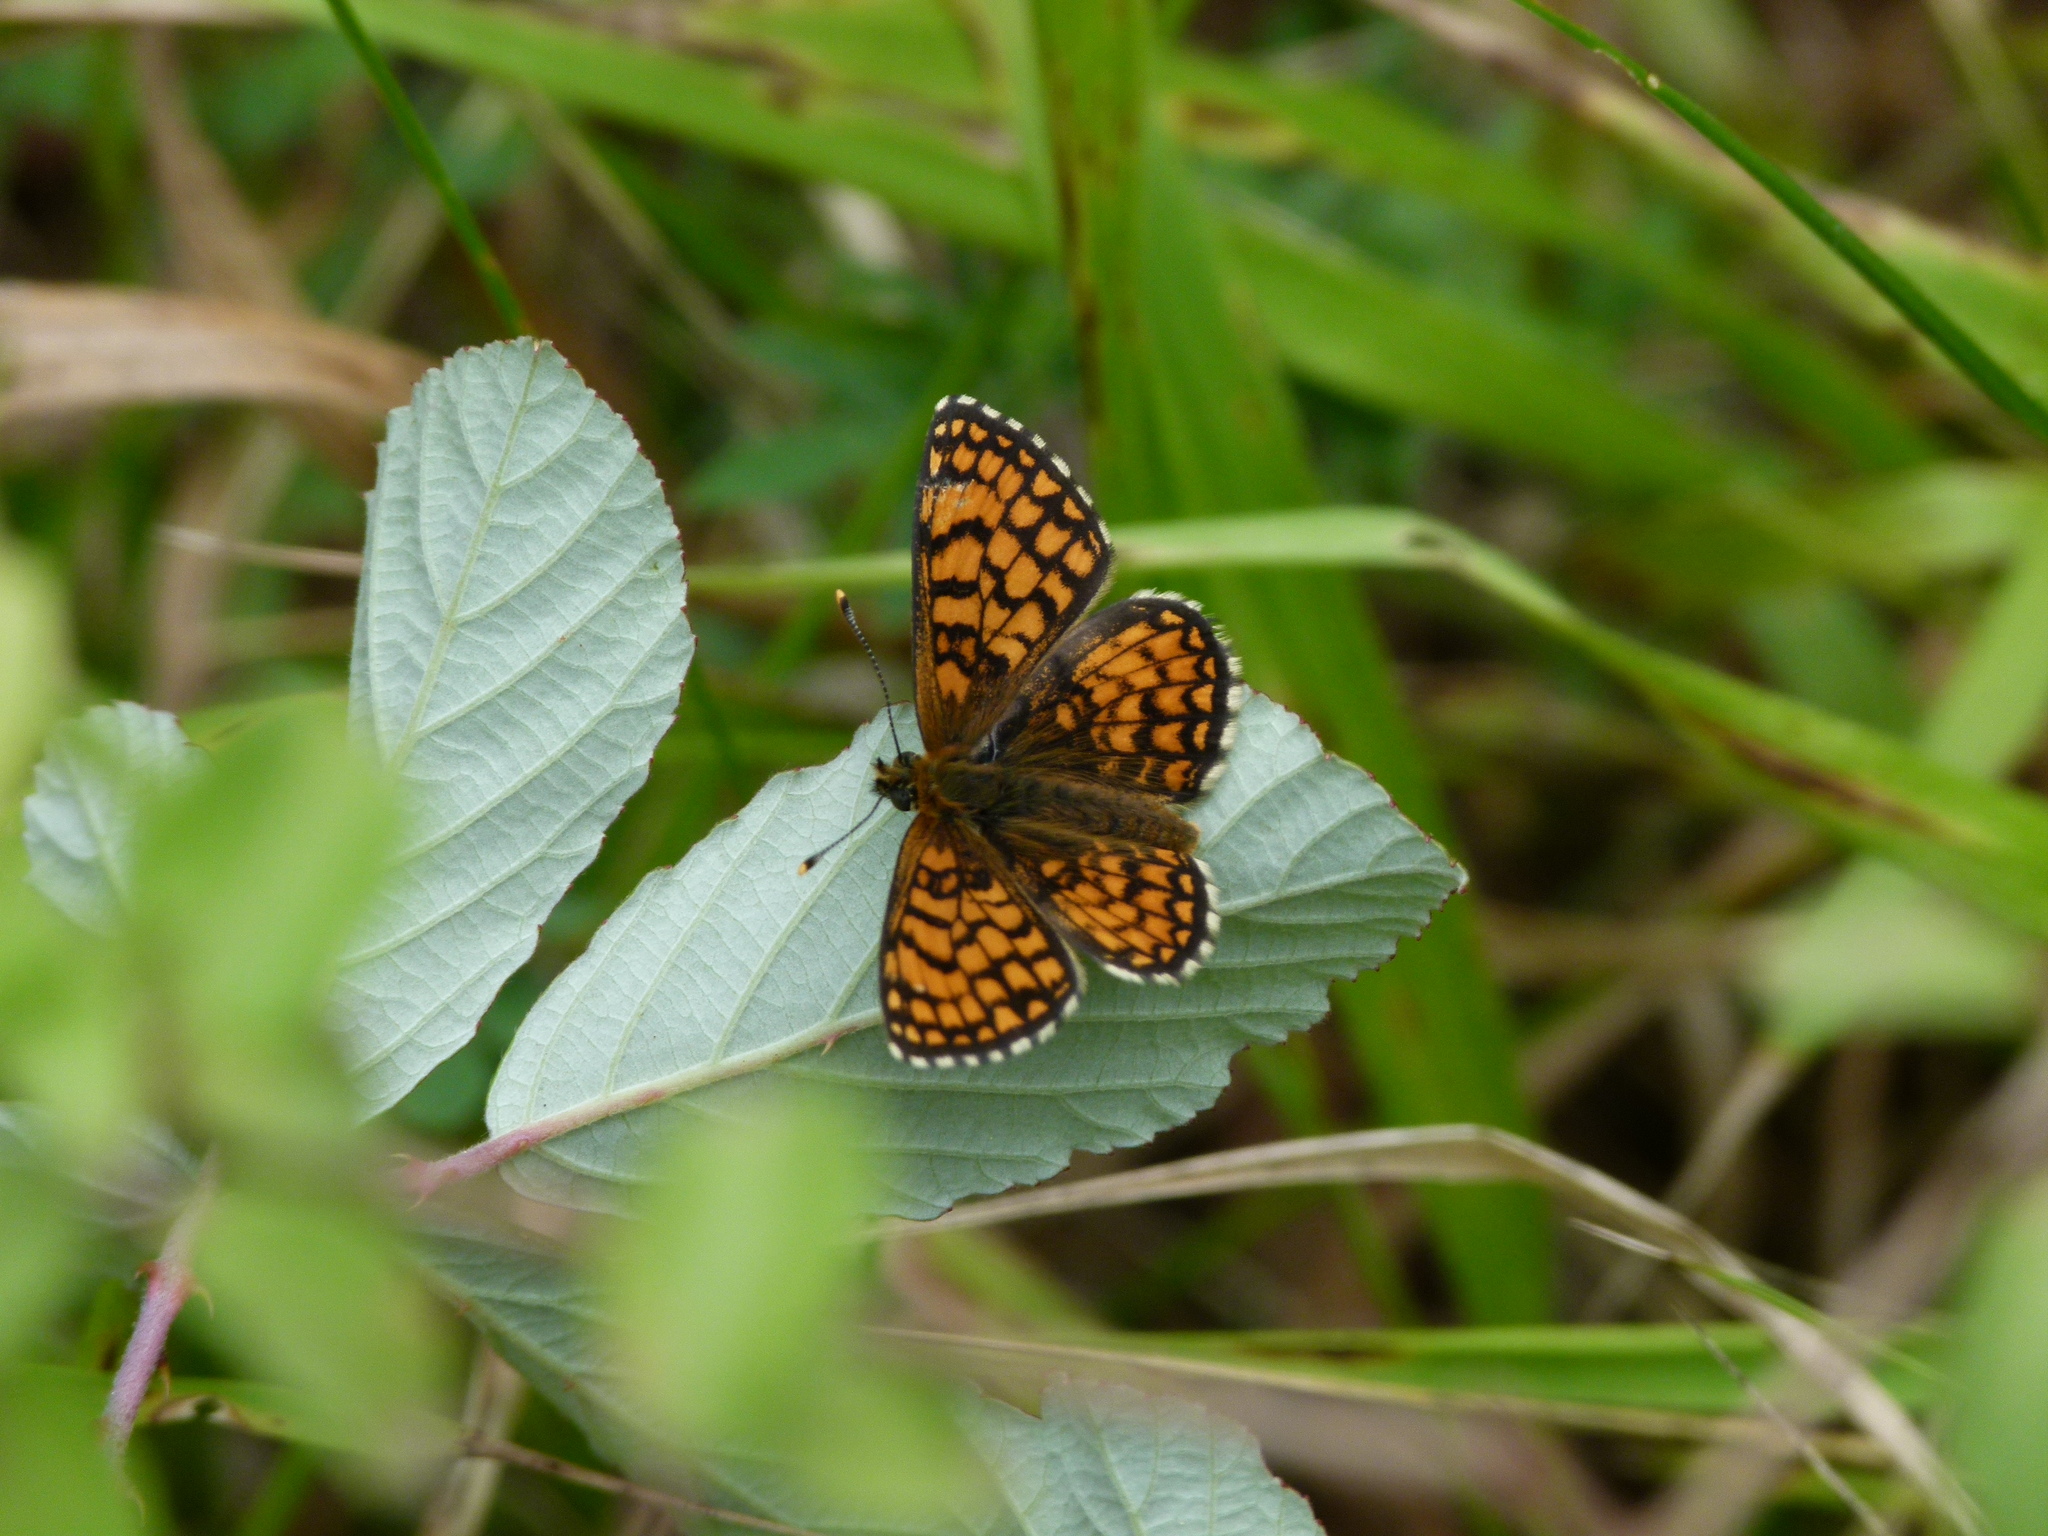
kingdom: Animalia
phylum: Arthropoda
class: Insecta
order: Lepidoptera
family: Nymphalidae
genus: Mellicta
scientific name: Mellicta athalia
